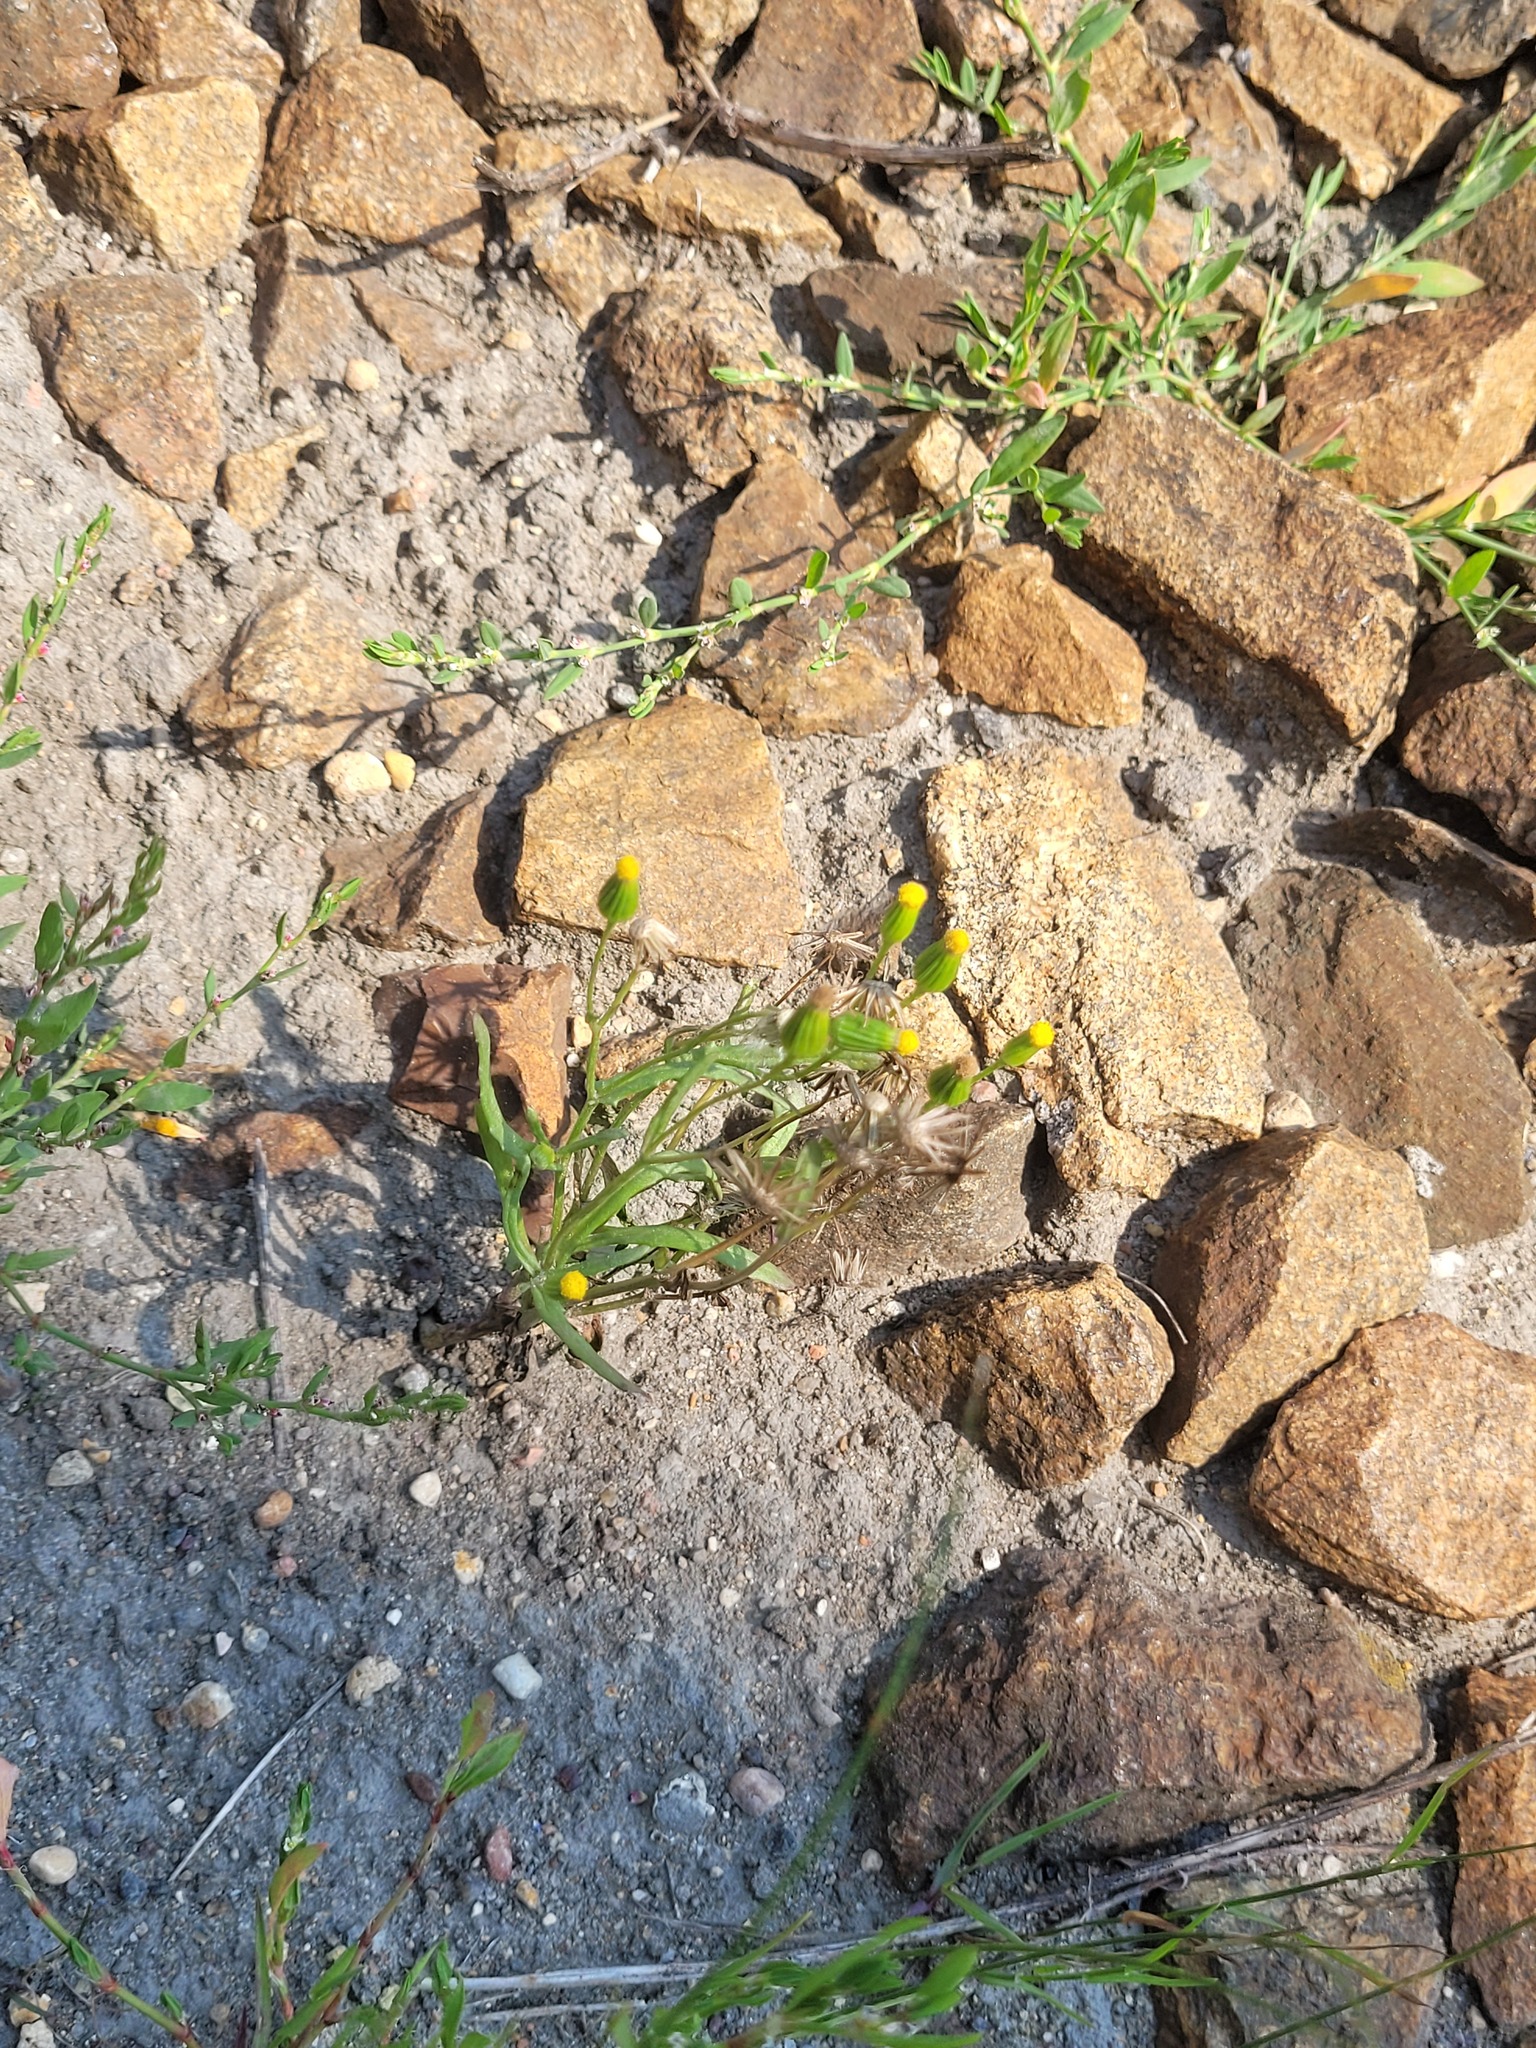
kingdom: Plantae
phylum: Tracheophyta
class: Magnoliopsida
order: Asterales
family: Asteraceae
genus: Senecio
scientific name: Senecio dubitabilis
